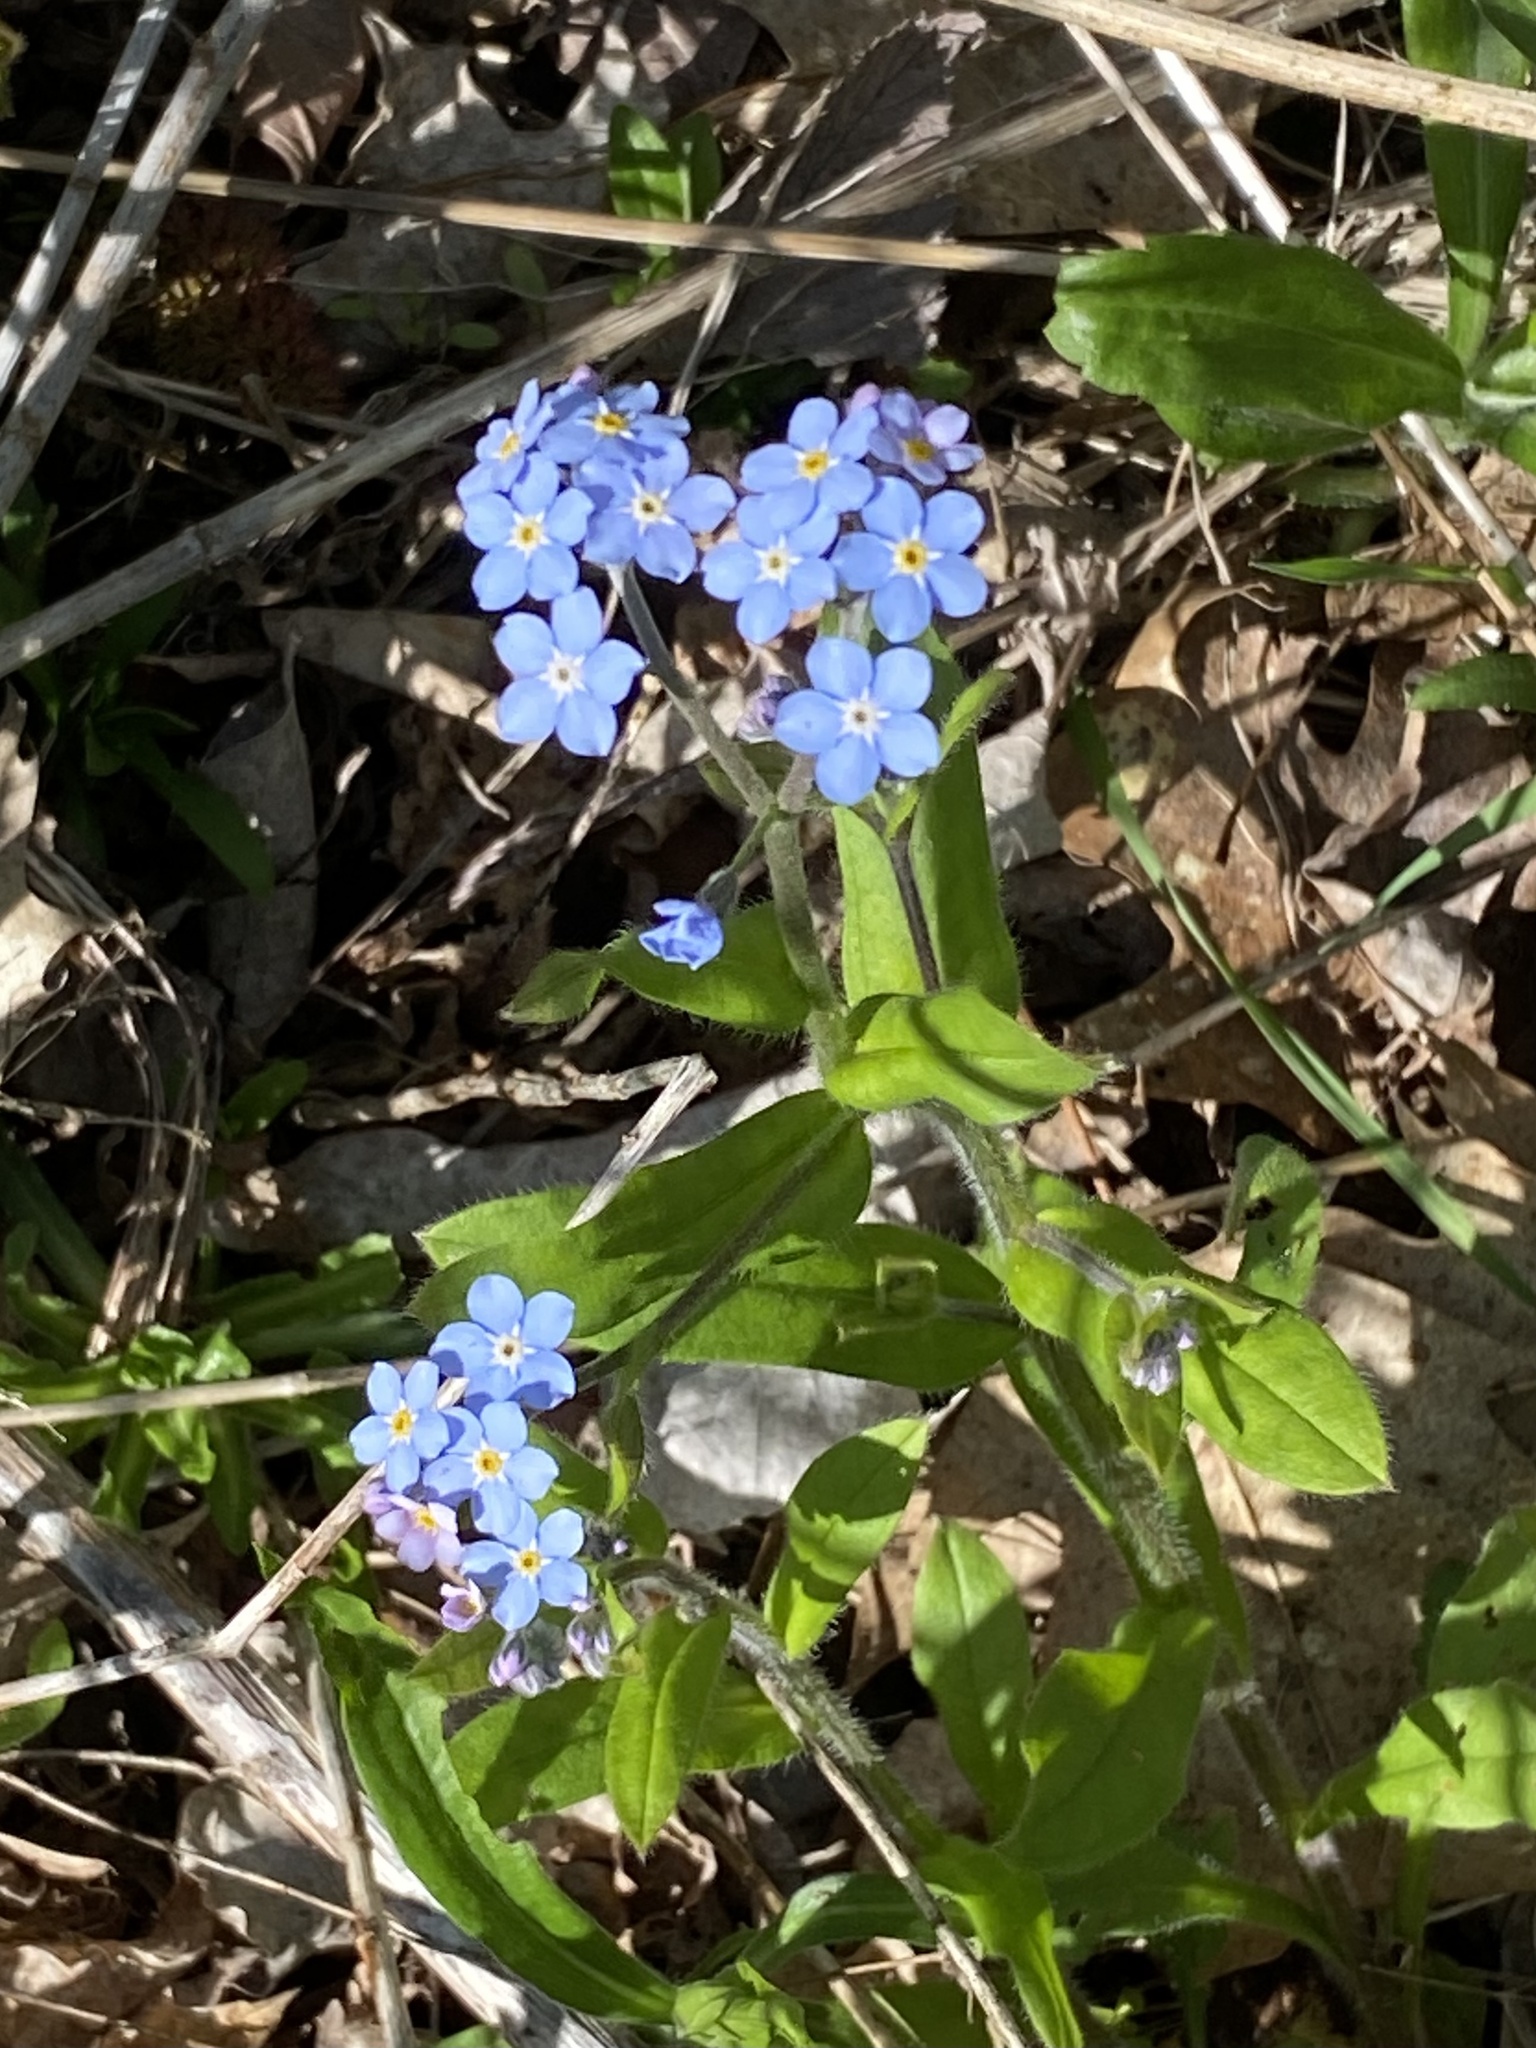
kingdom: Plantae
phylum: Tracheophyta
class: Magnoliopsida
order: Boraginales
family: Boraginaceae
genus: Myosotis
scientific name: Myosotis sylvatica
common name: Wood forget-me-not
